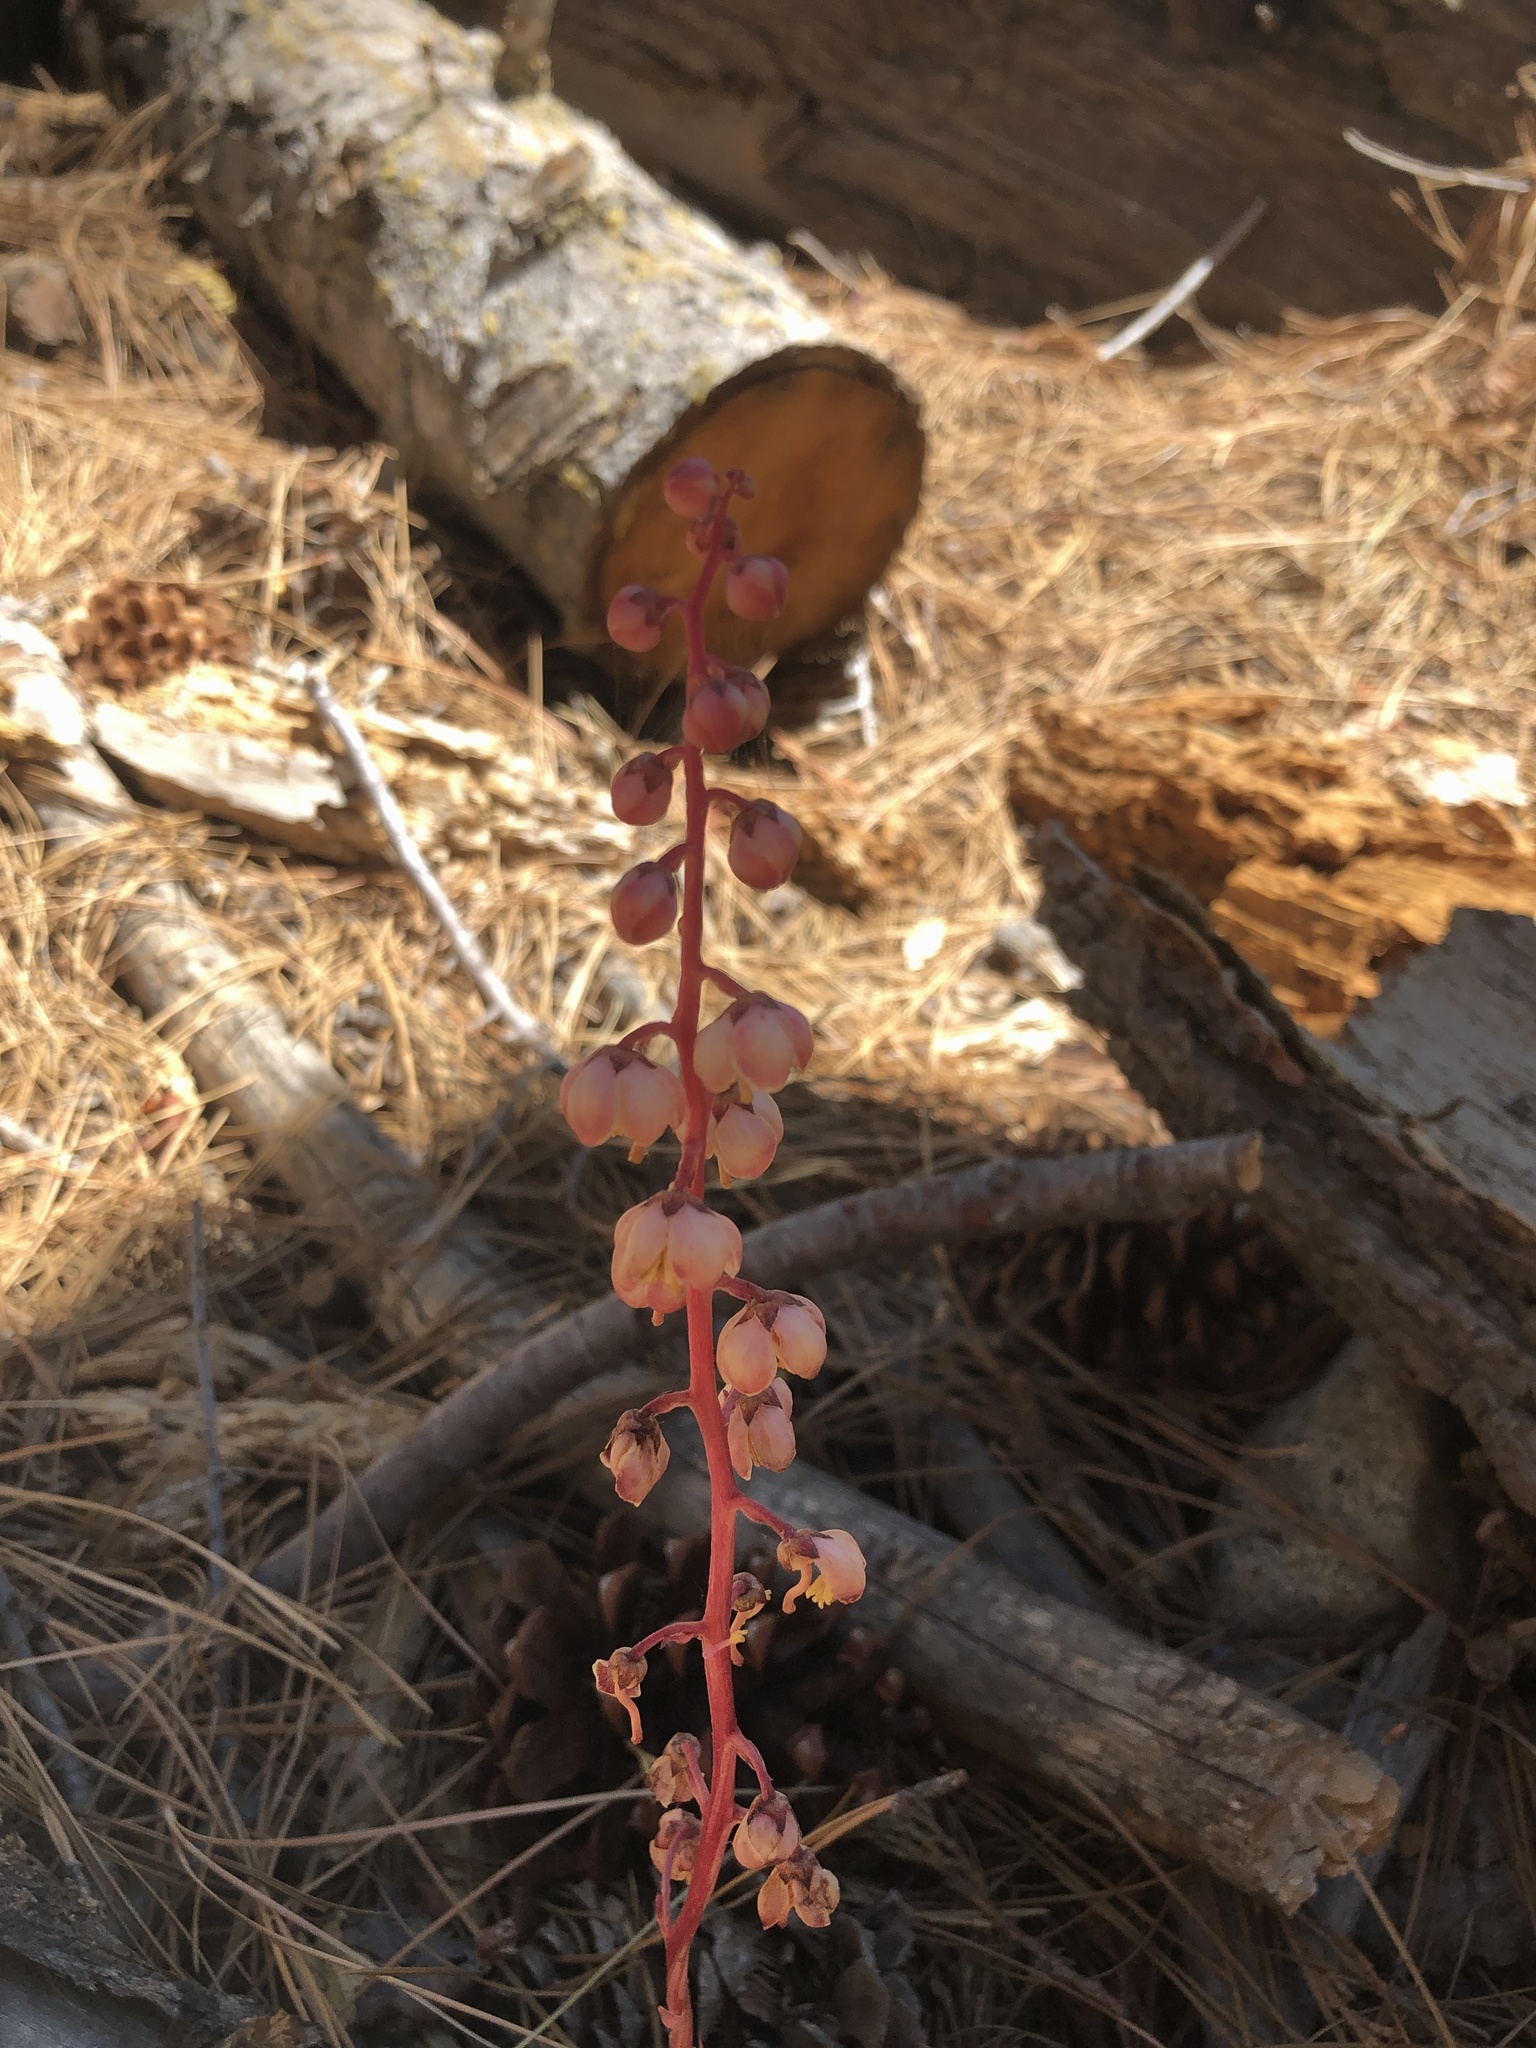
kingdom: Plantae
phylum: Tracheophyta
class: Magnoliopsida
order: Ericales
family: Ericaceae
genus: Pyrola
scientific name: Pyrola aphylla
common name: Leafless wintergreen
